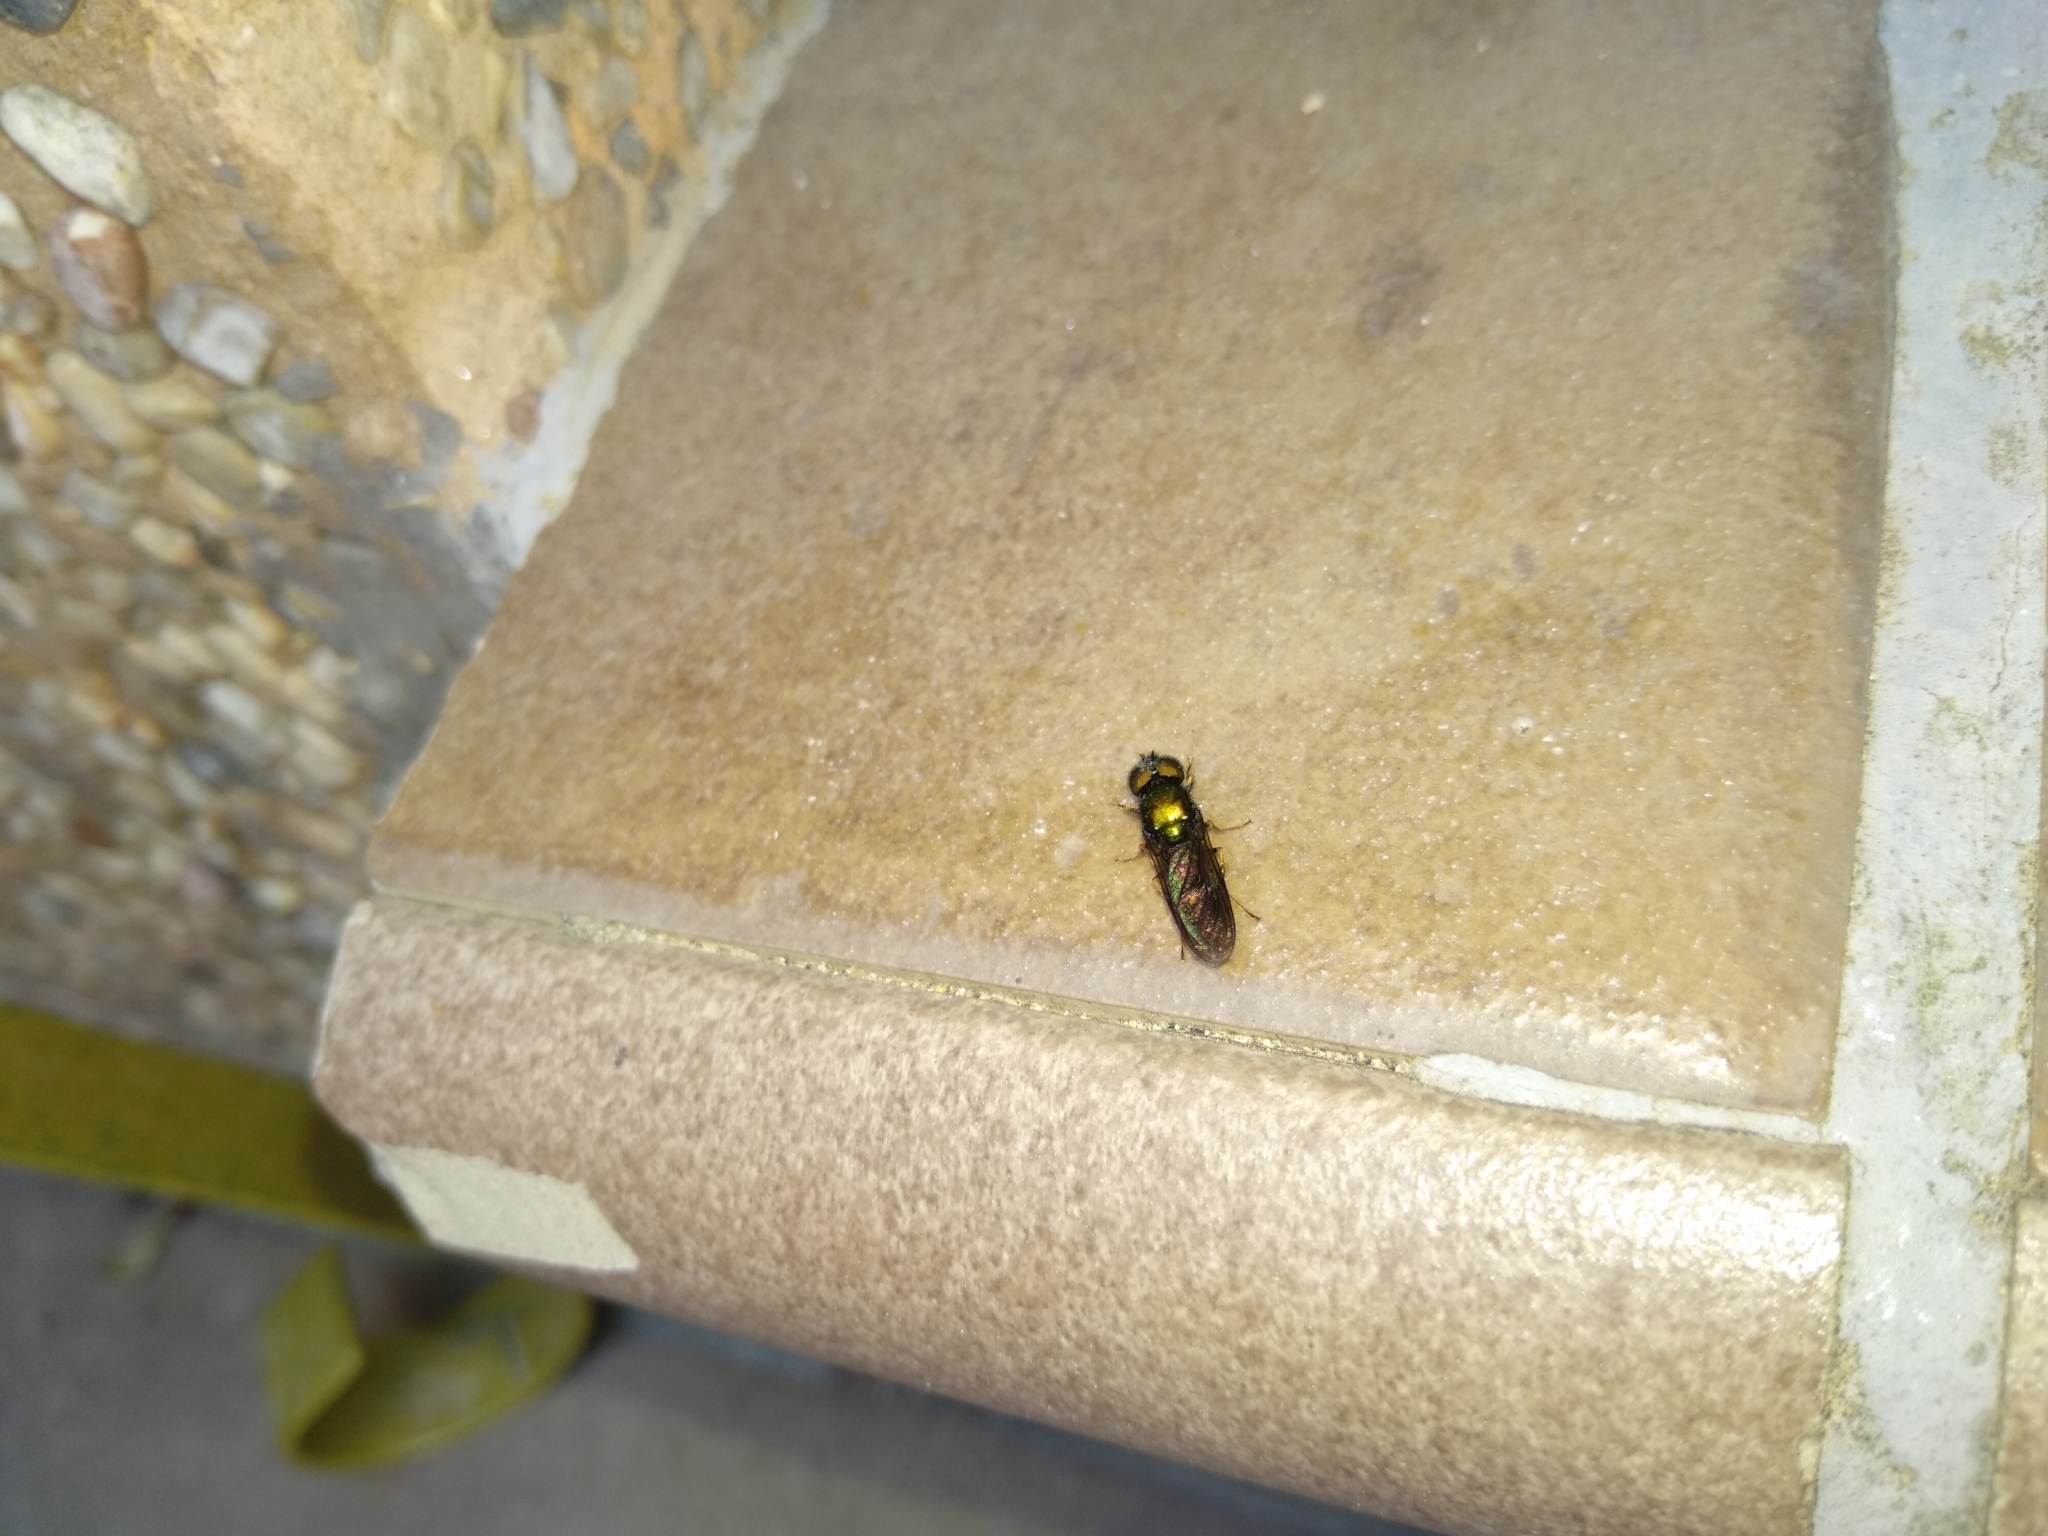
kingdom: Animalia
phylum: Arthropoda
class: Insecta
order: Diptera
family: Stratiomyidae
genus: Chloromyia
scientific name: Chloromyia formosa
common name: Soldier fly
